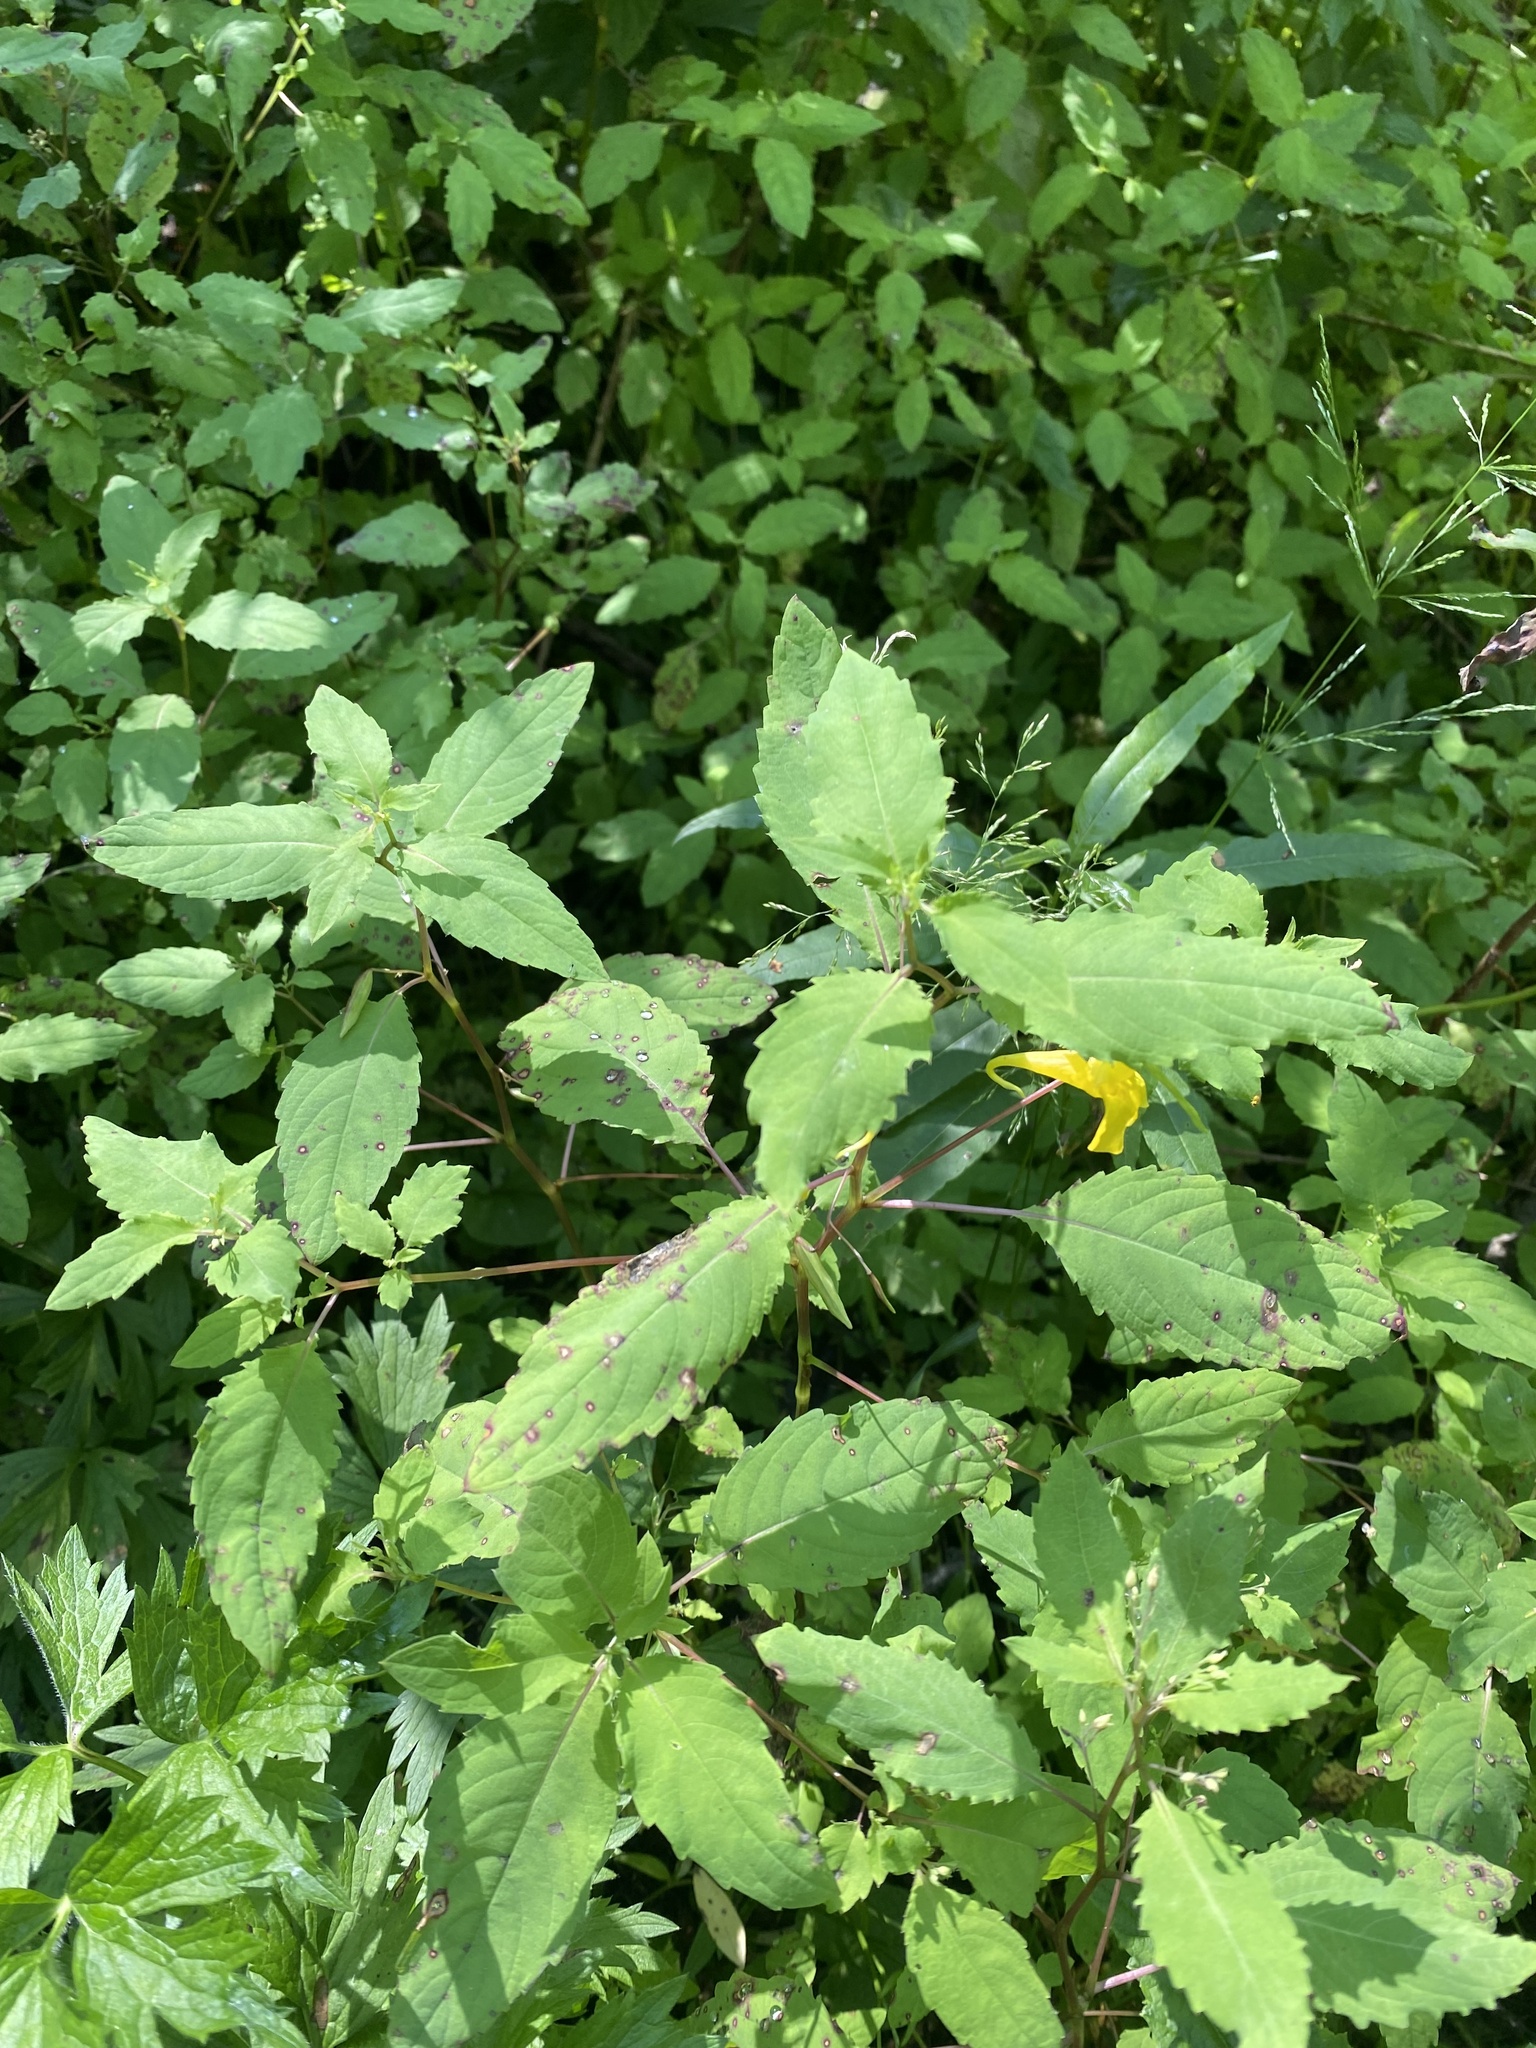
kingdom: Plantae
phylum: Tracheophyta
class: Magnoliopsida
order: Ericales
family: Balsaminaceae
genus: Impatiens
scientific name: Impatiens noli-tangere
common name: Touch-me-not balsam
